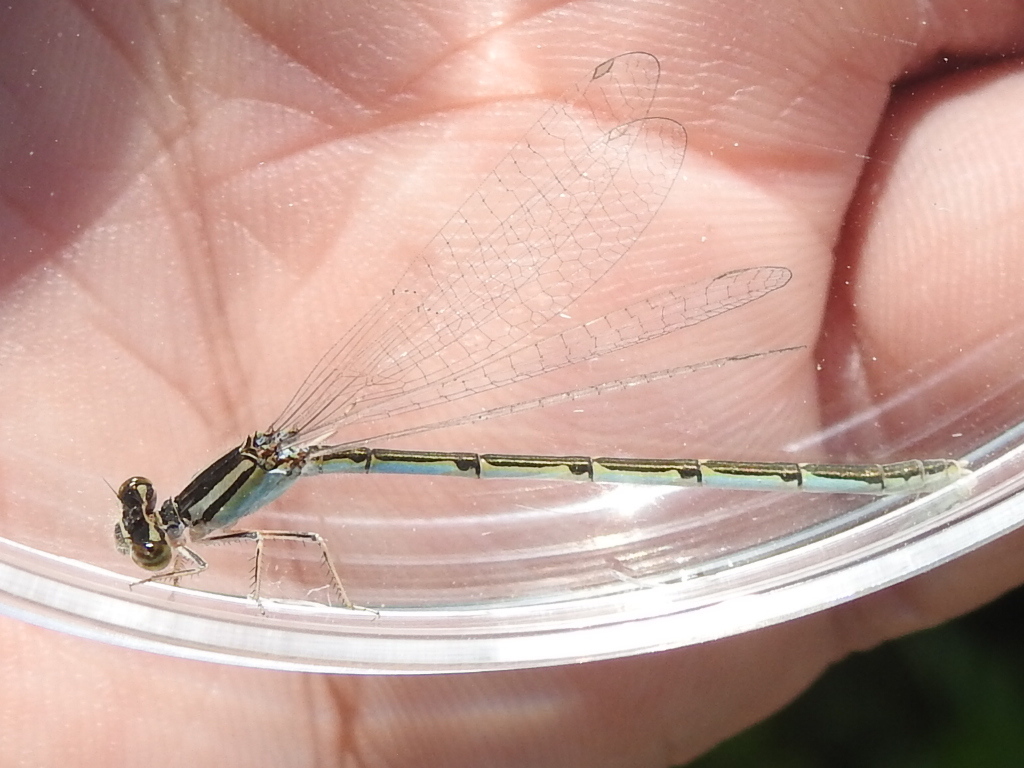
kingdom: Animalia
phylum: Arthropoda
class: Insecta
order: Odonata
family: Coenagrionidae
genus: Enallagma
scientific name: Enallagma civile
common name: Damselfly
